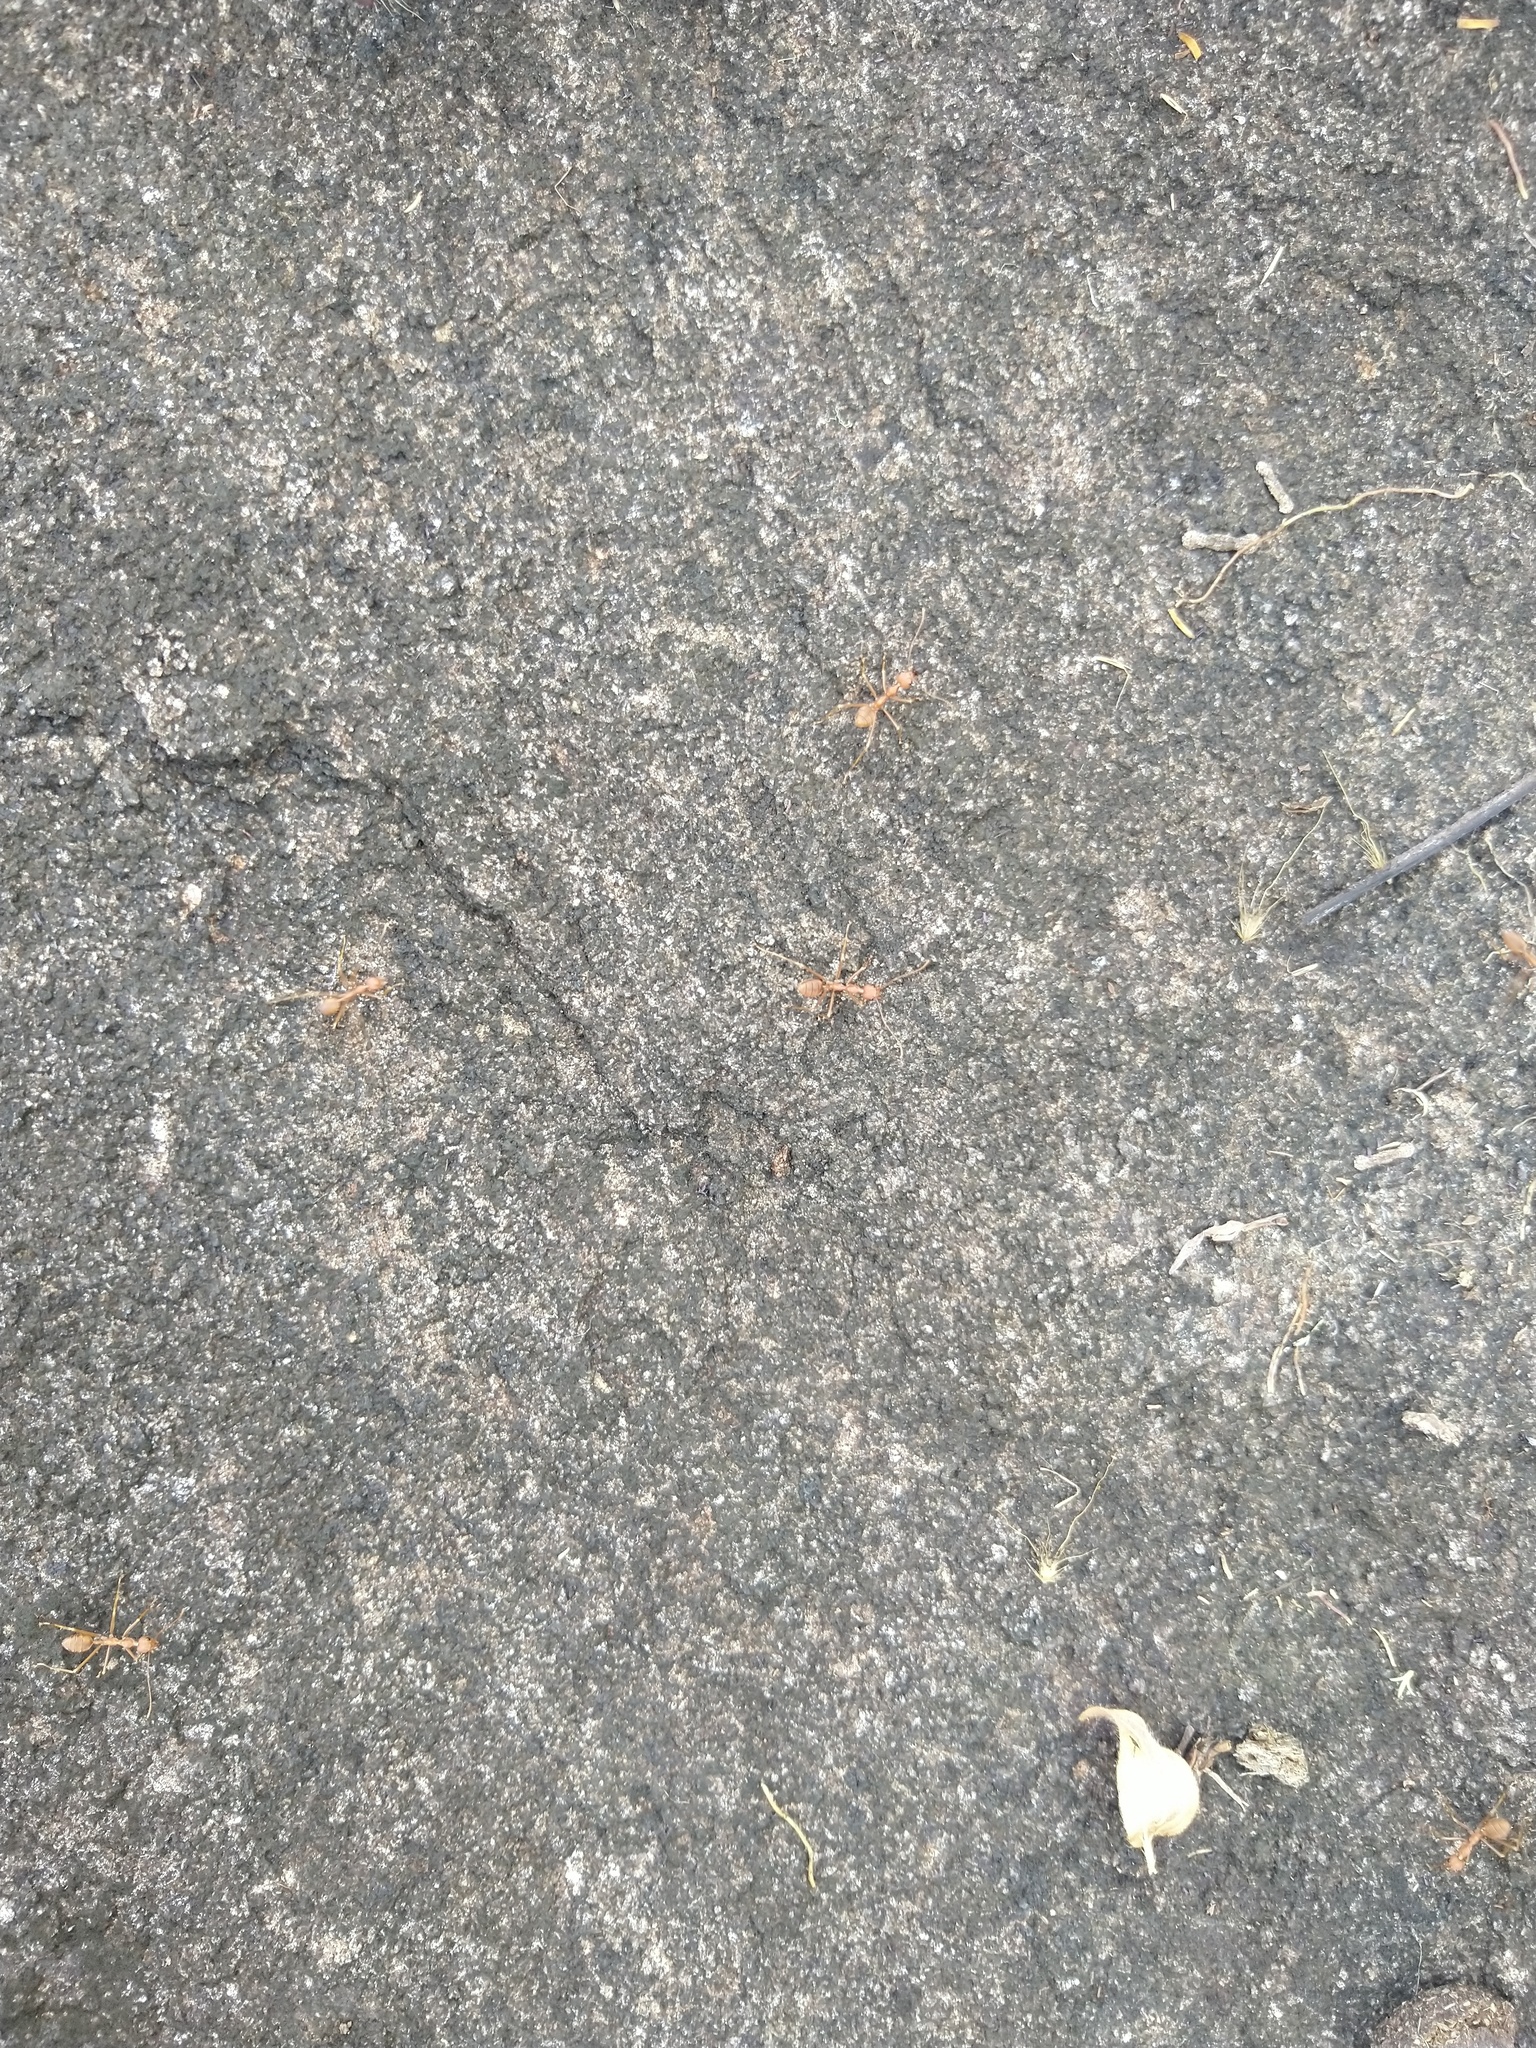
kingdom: Animalia
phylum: Arthropoda
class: Insecta
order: Hymenoptera
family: Formicidae
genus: Oecophylla
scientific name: Oecophylla smaragdina
